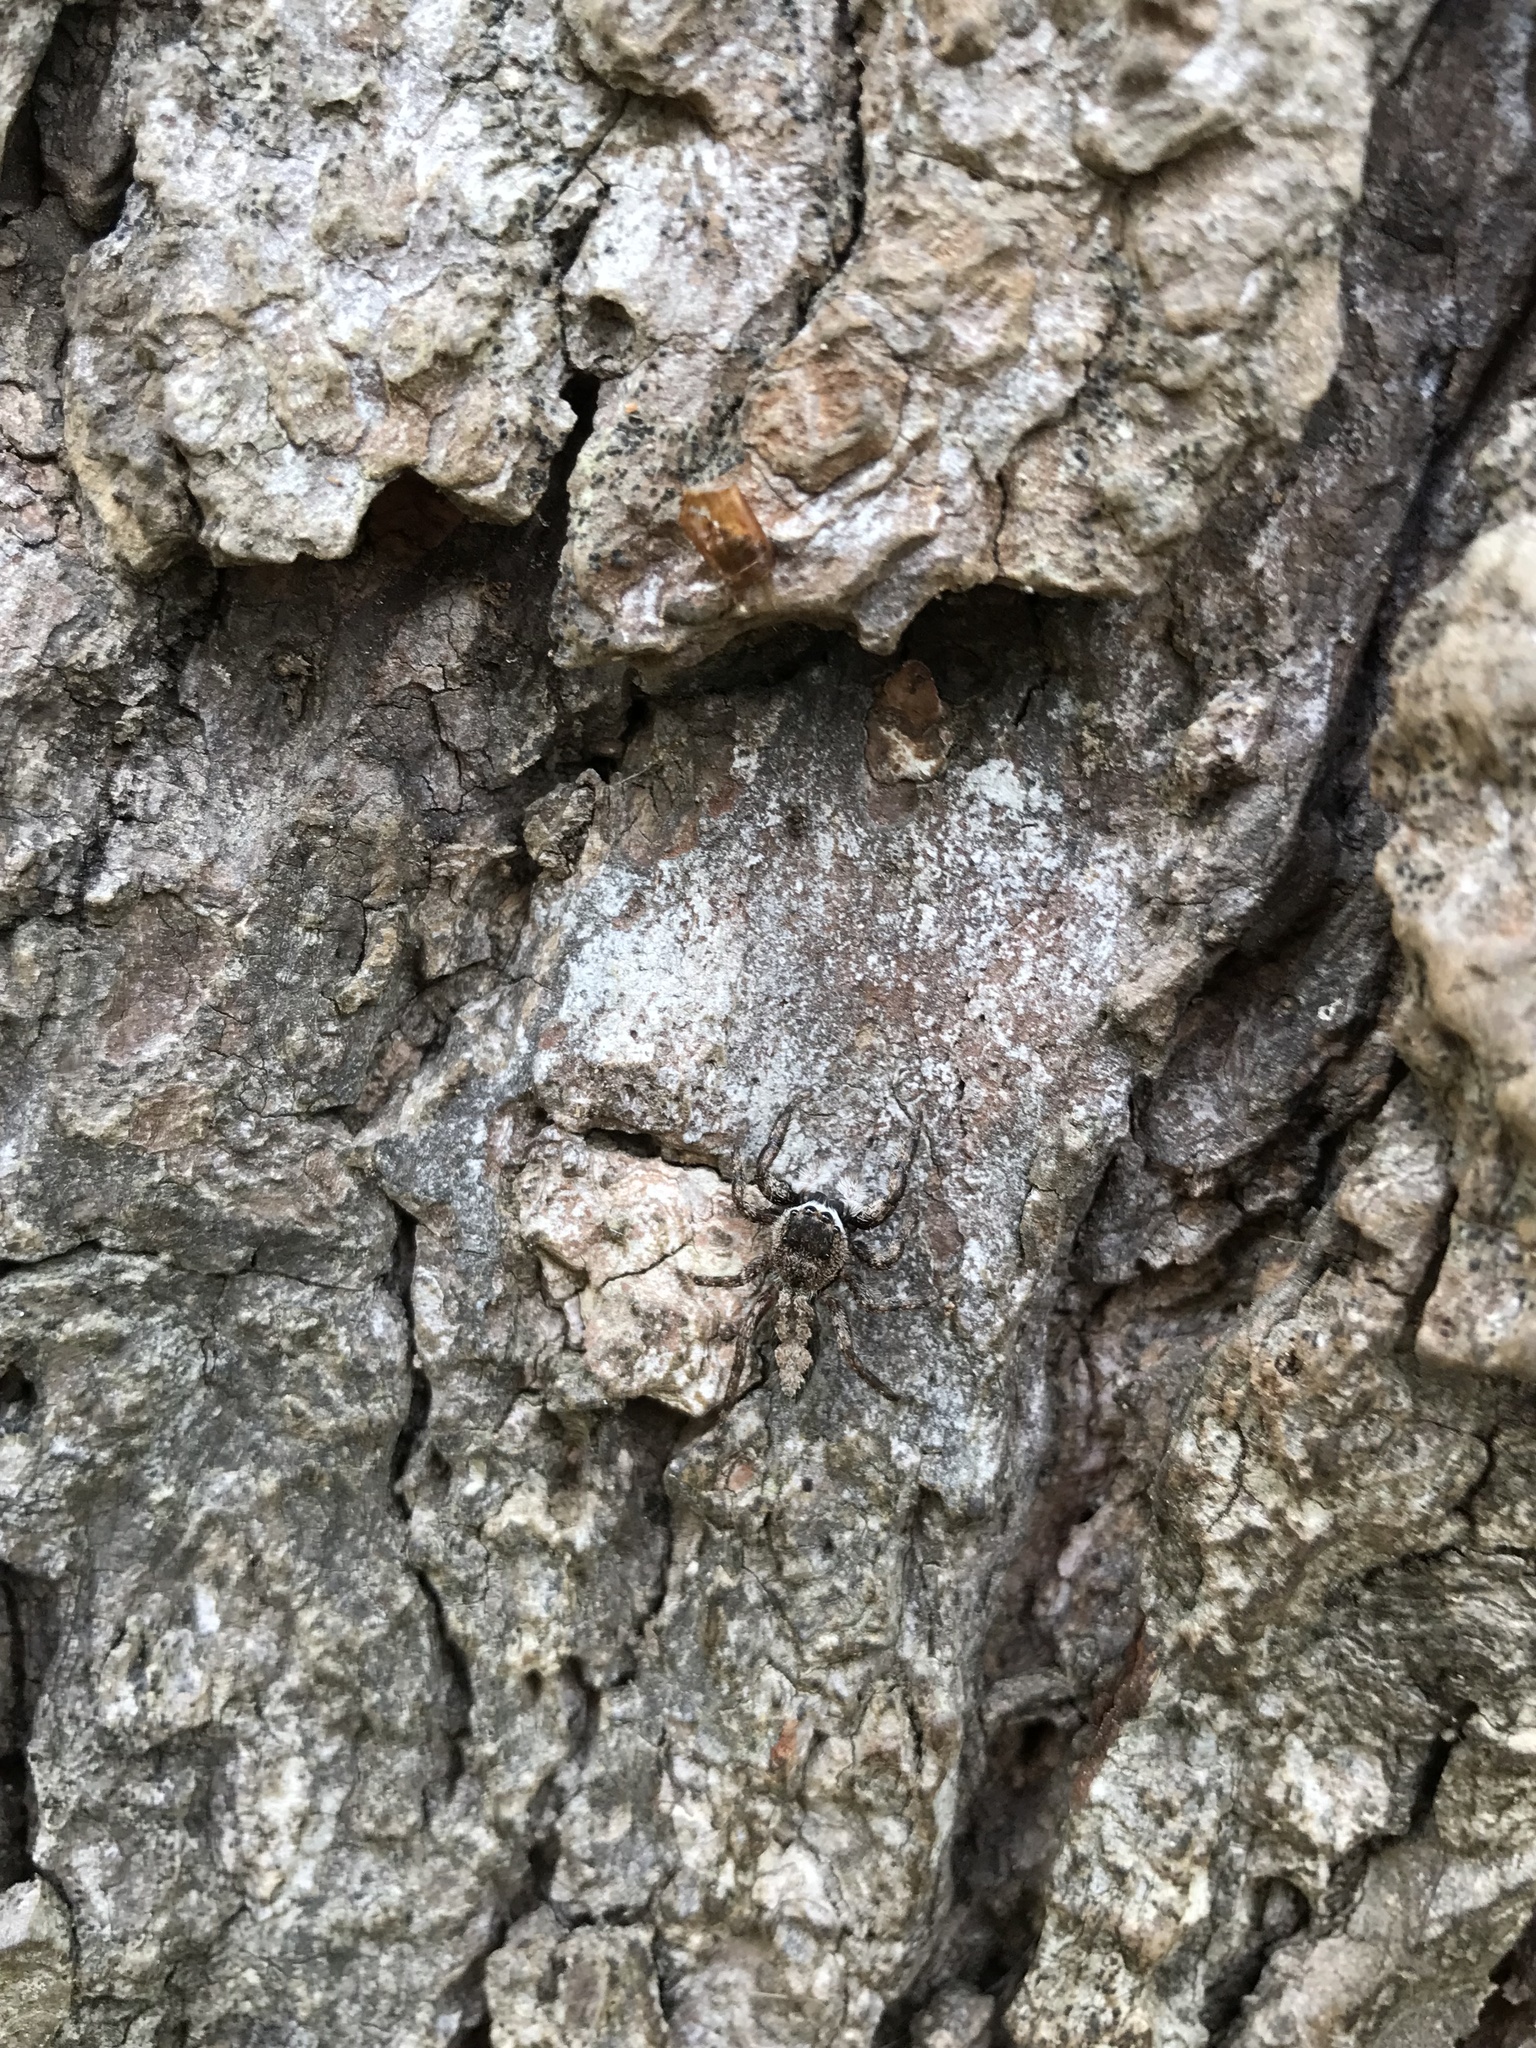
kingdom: Animalia
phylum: Arthropoda
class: Arachnida
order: Araneae
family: Salticidae
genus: Platycryptus
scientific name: Platycryptus undatus
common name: Tan jumping spider
